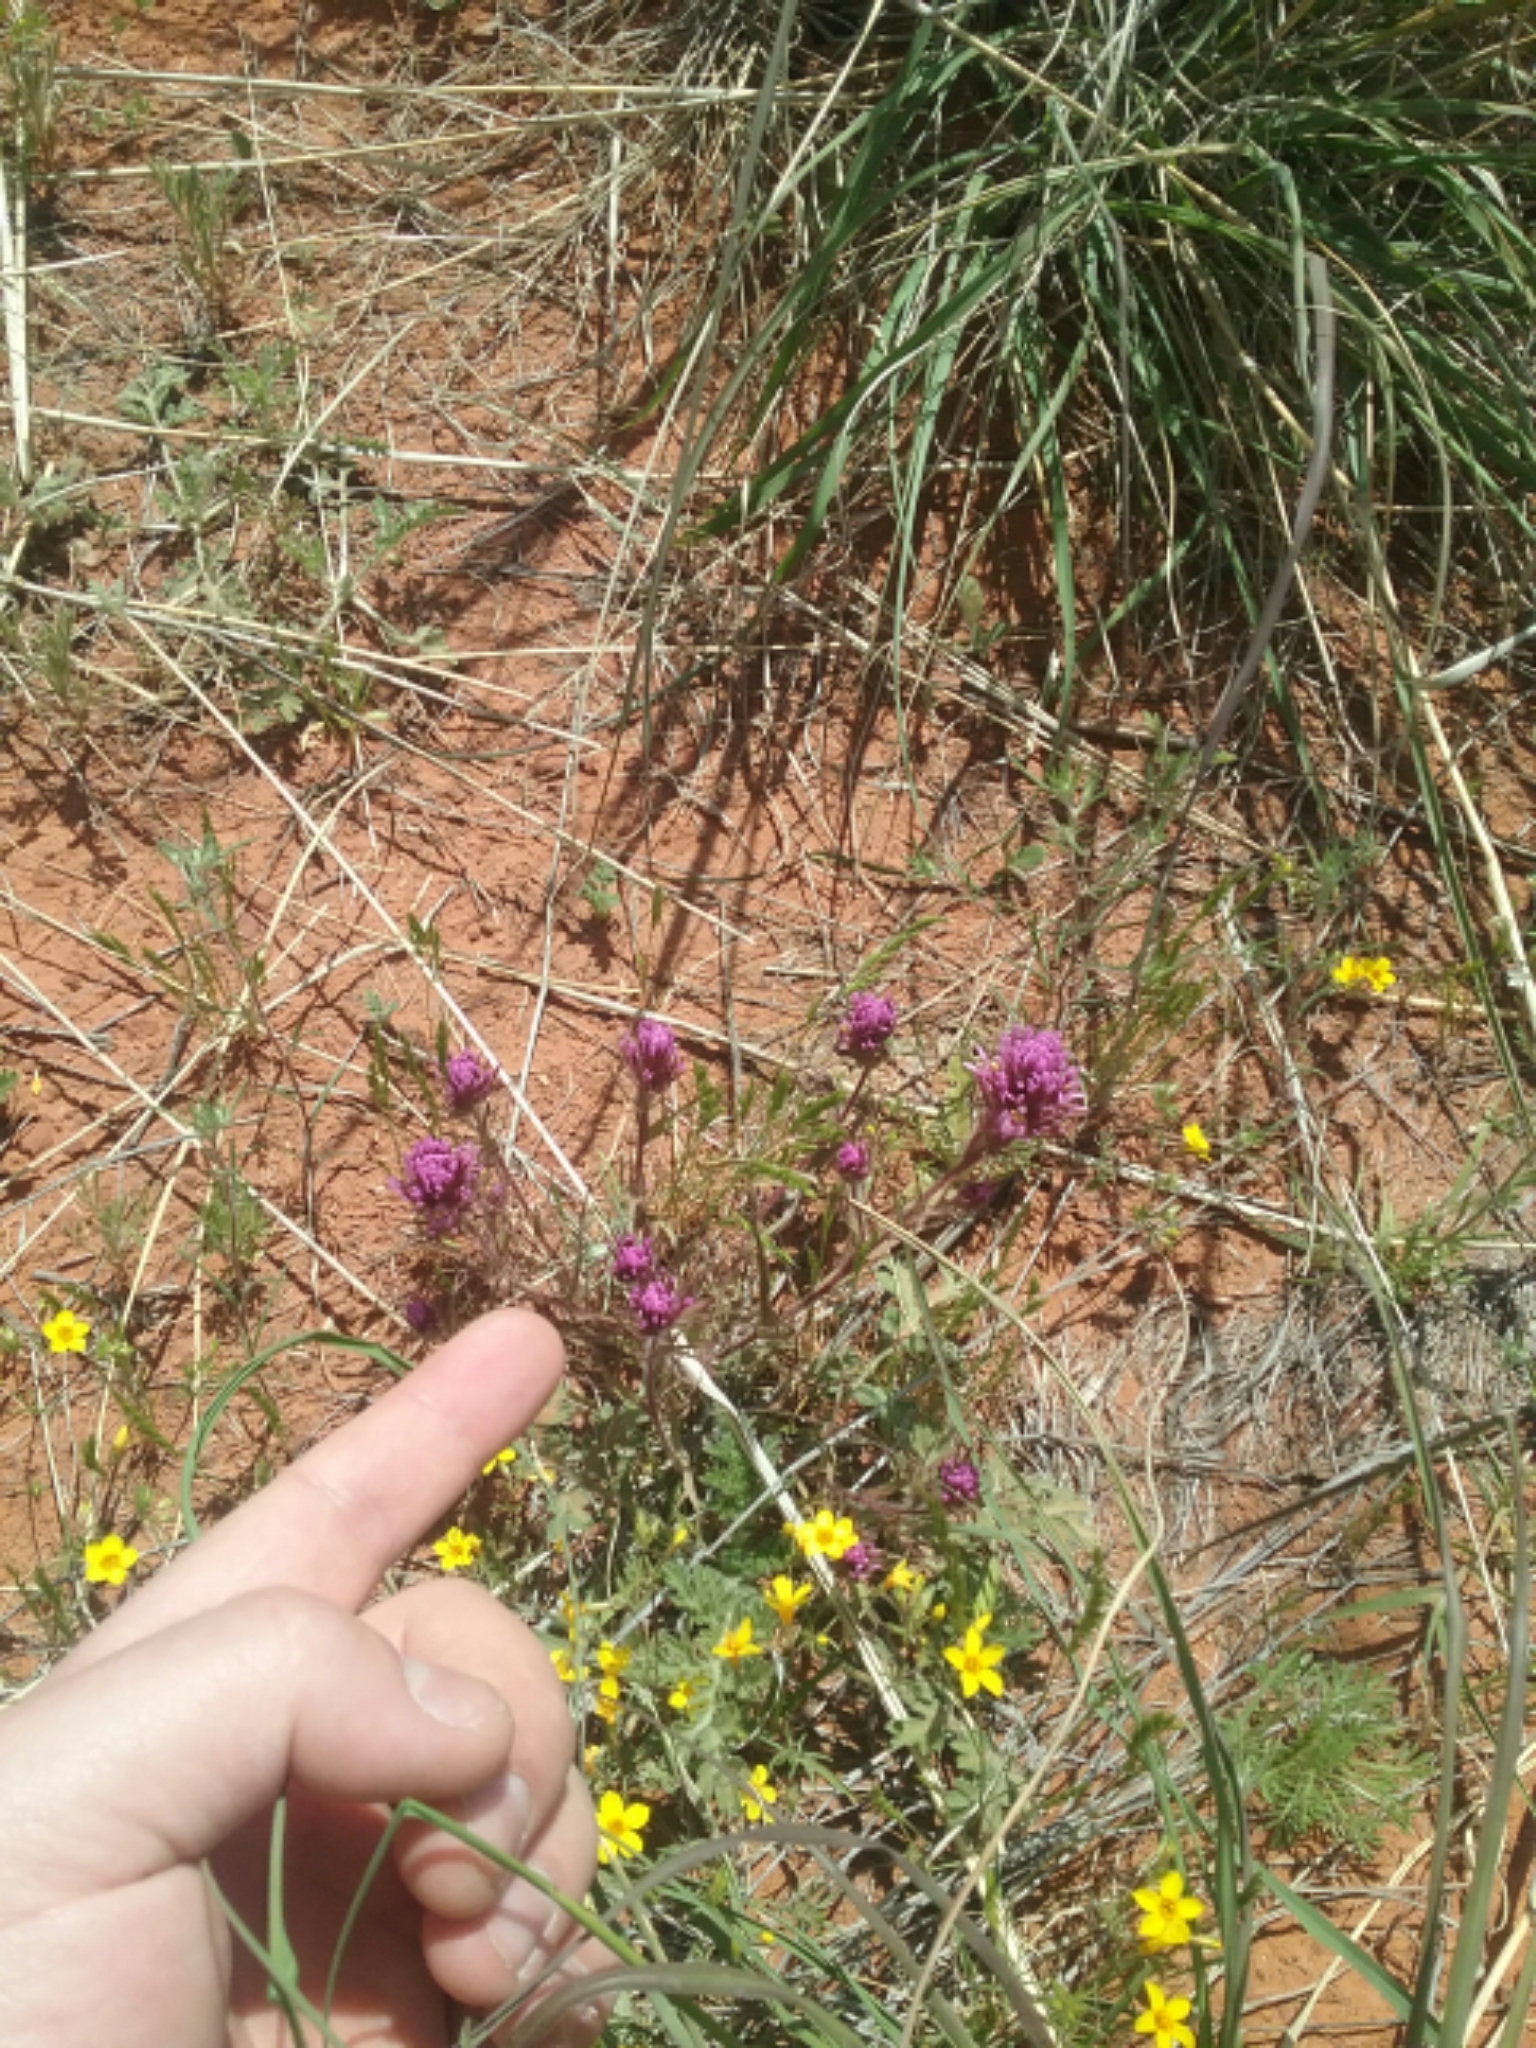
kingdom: Plantae
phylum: Tracheophyta
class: Magnoliopsida
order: Lamiales
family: Orobanchaceae
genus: Castilleja
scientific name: Castilleja exserta
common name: Purple owl-clover
